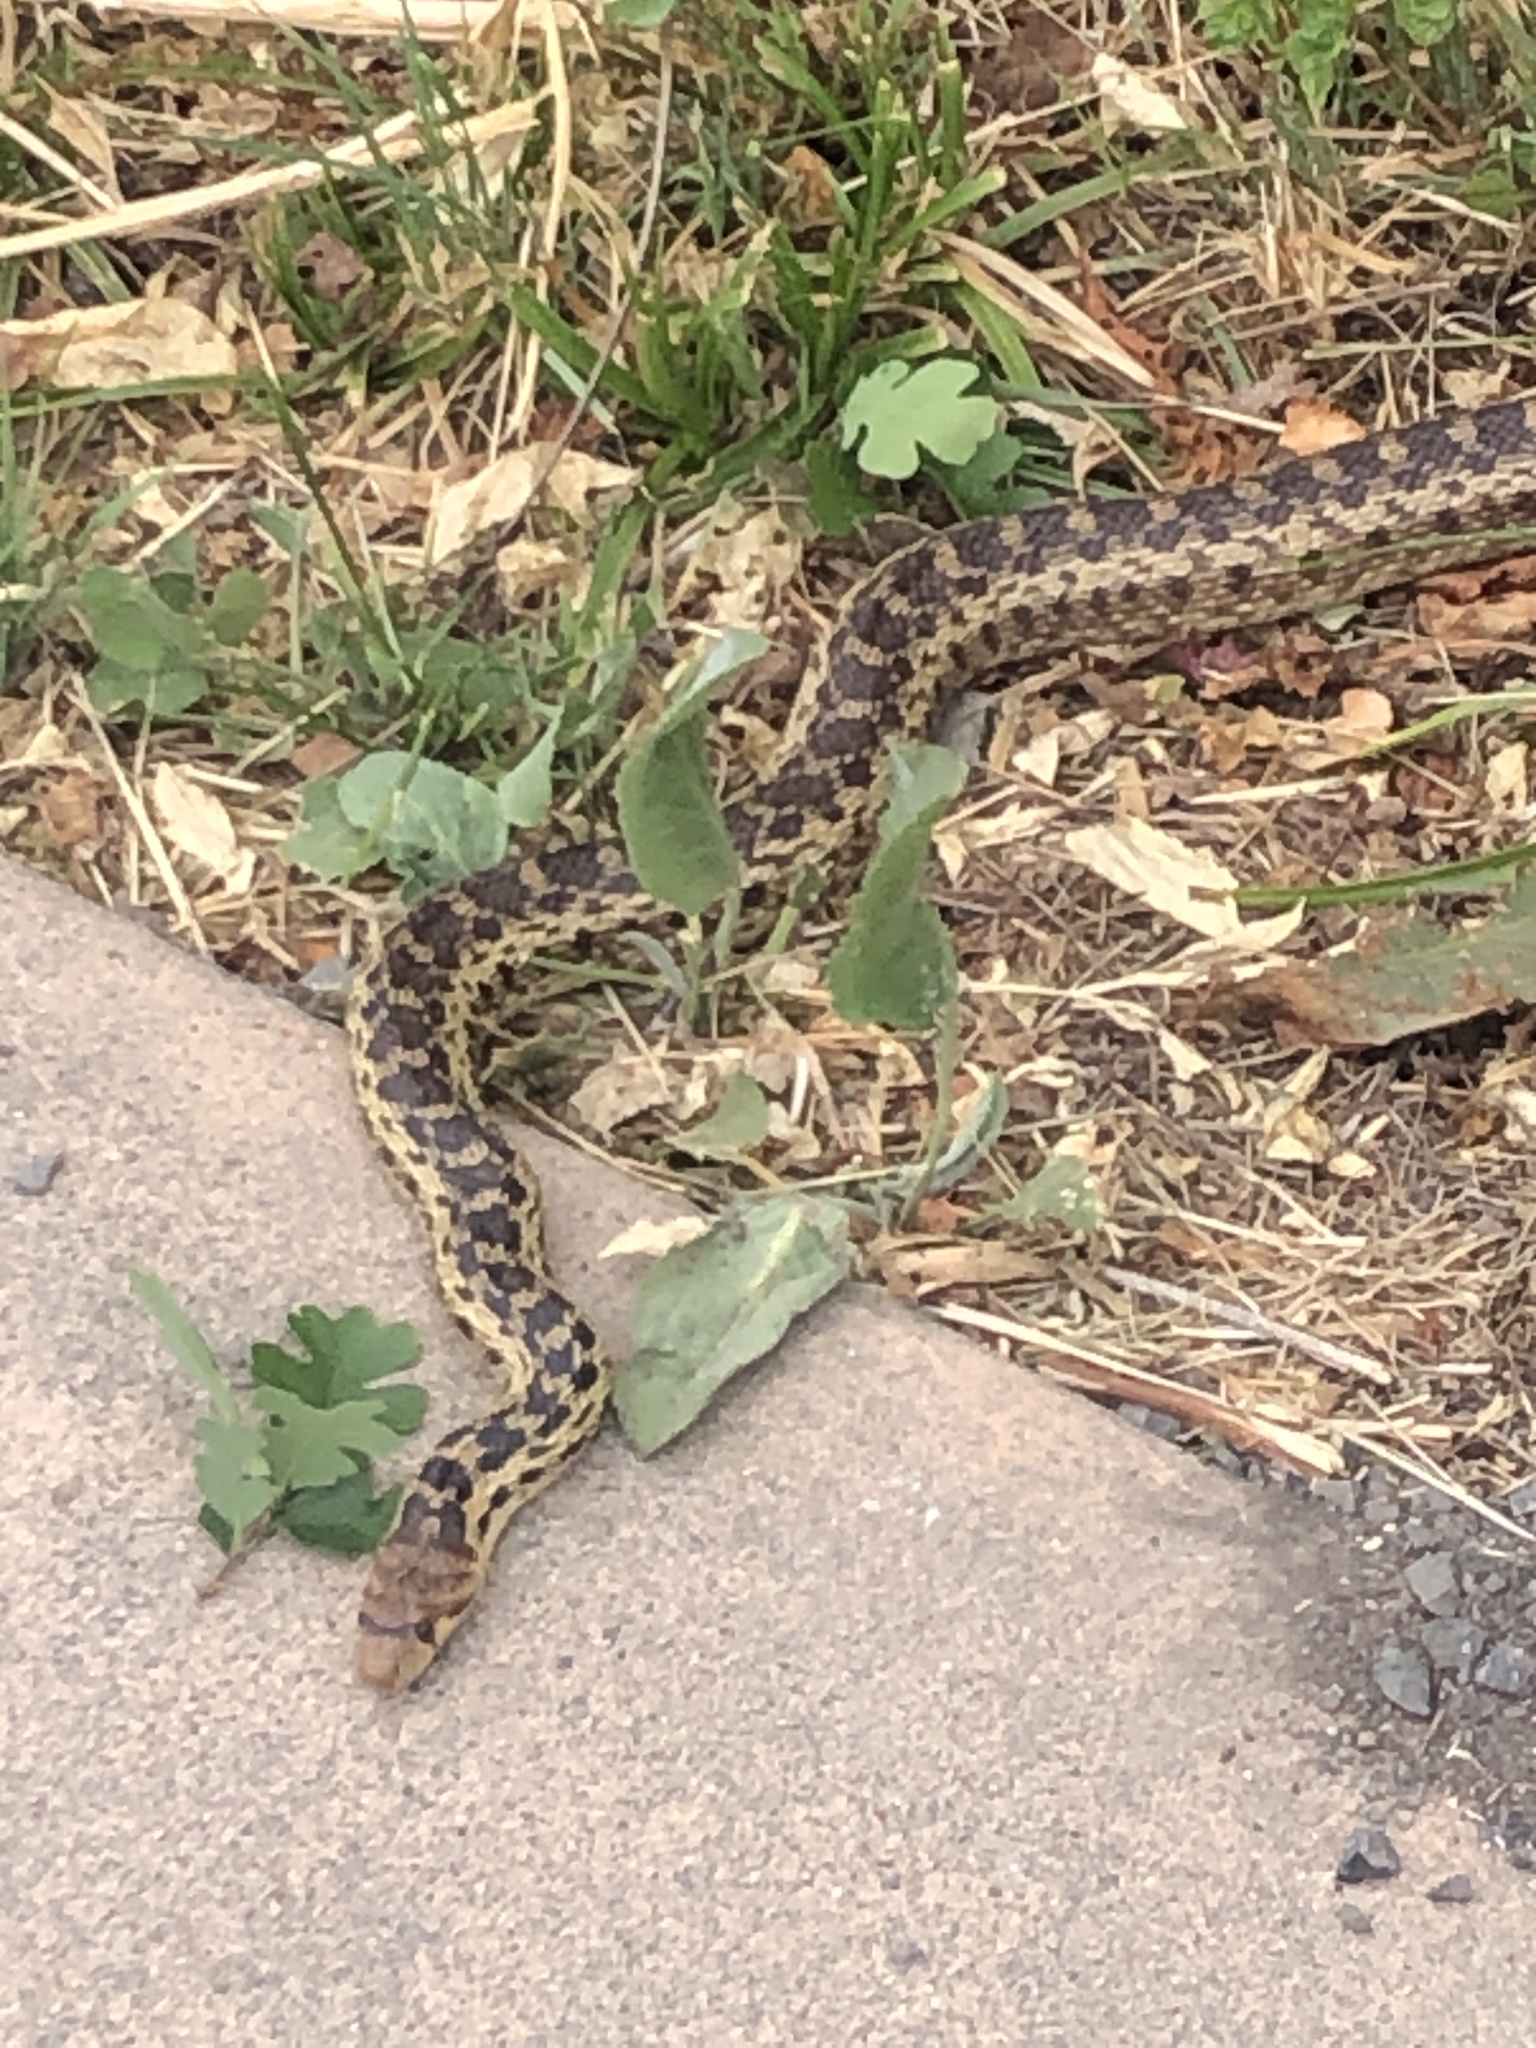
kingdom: Animalia
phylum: Chordata
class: Squamata
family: Colubridae
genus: Pituophis
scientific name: Pituophis catenifer
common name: Gopher snake
